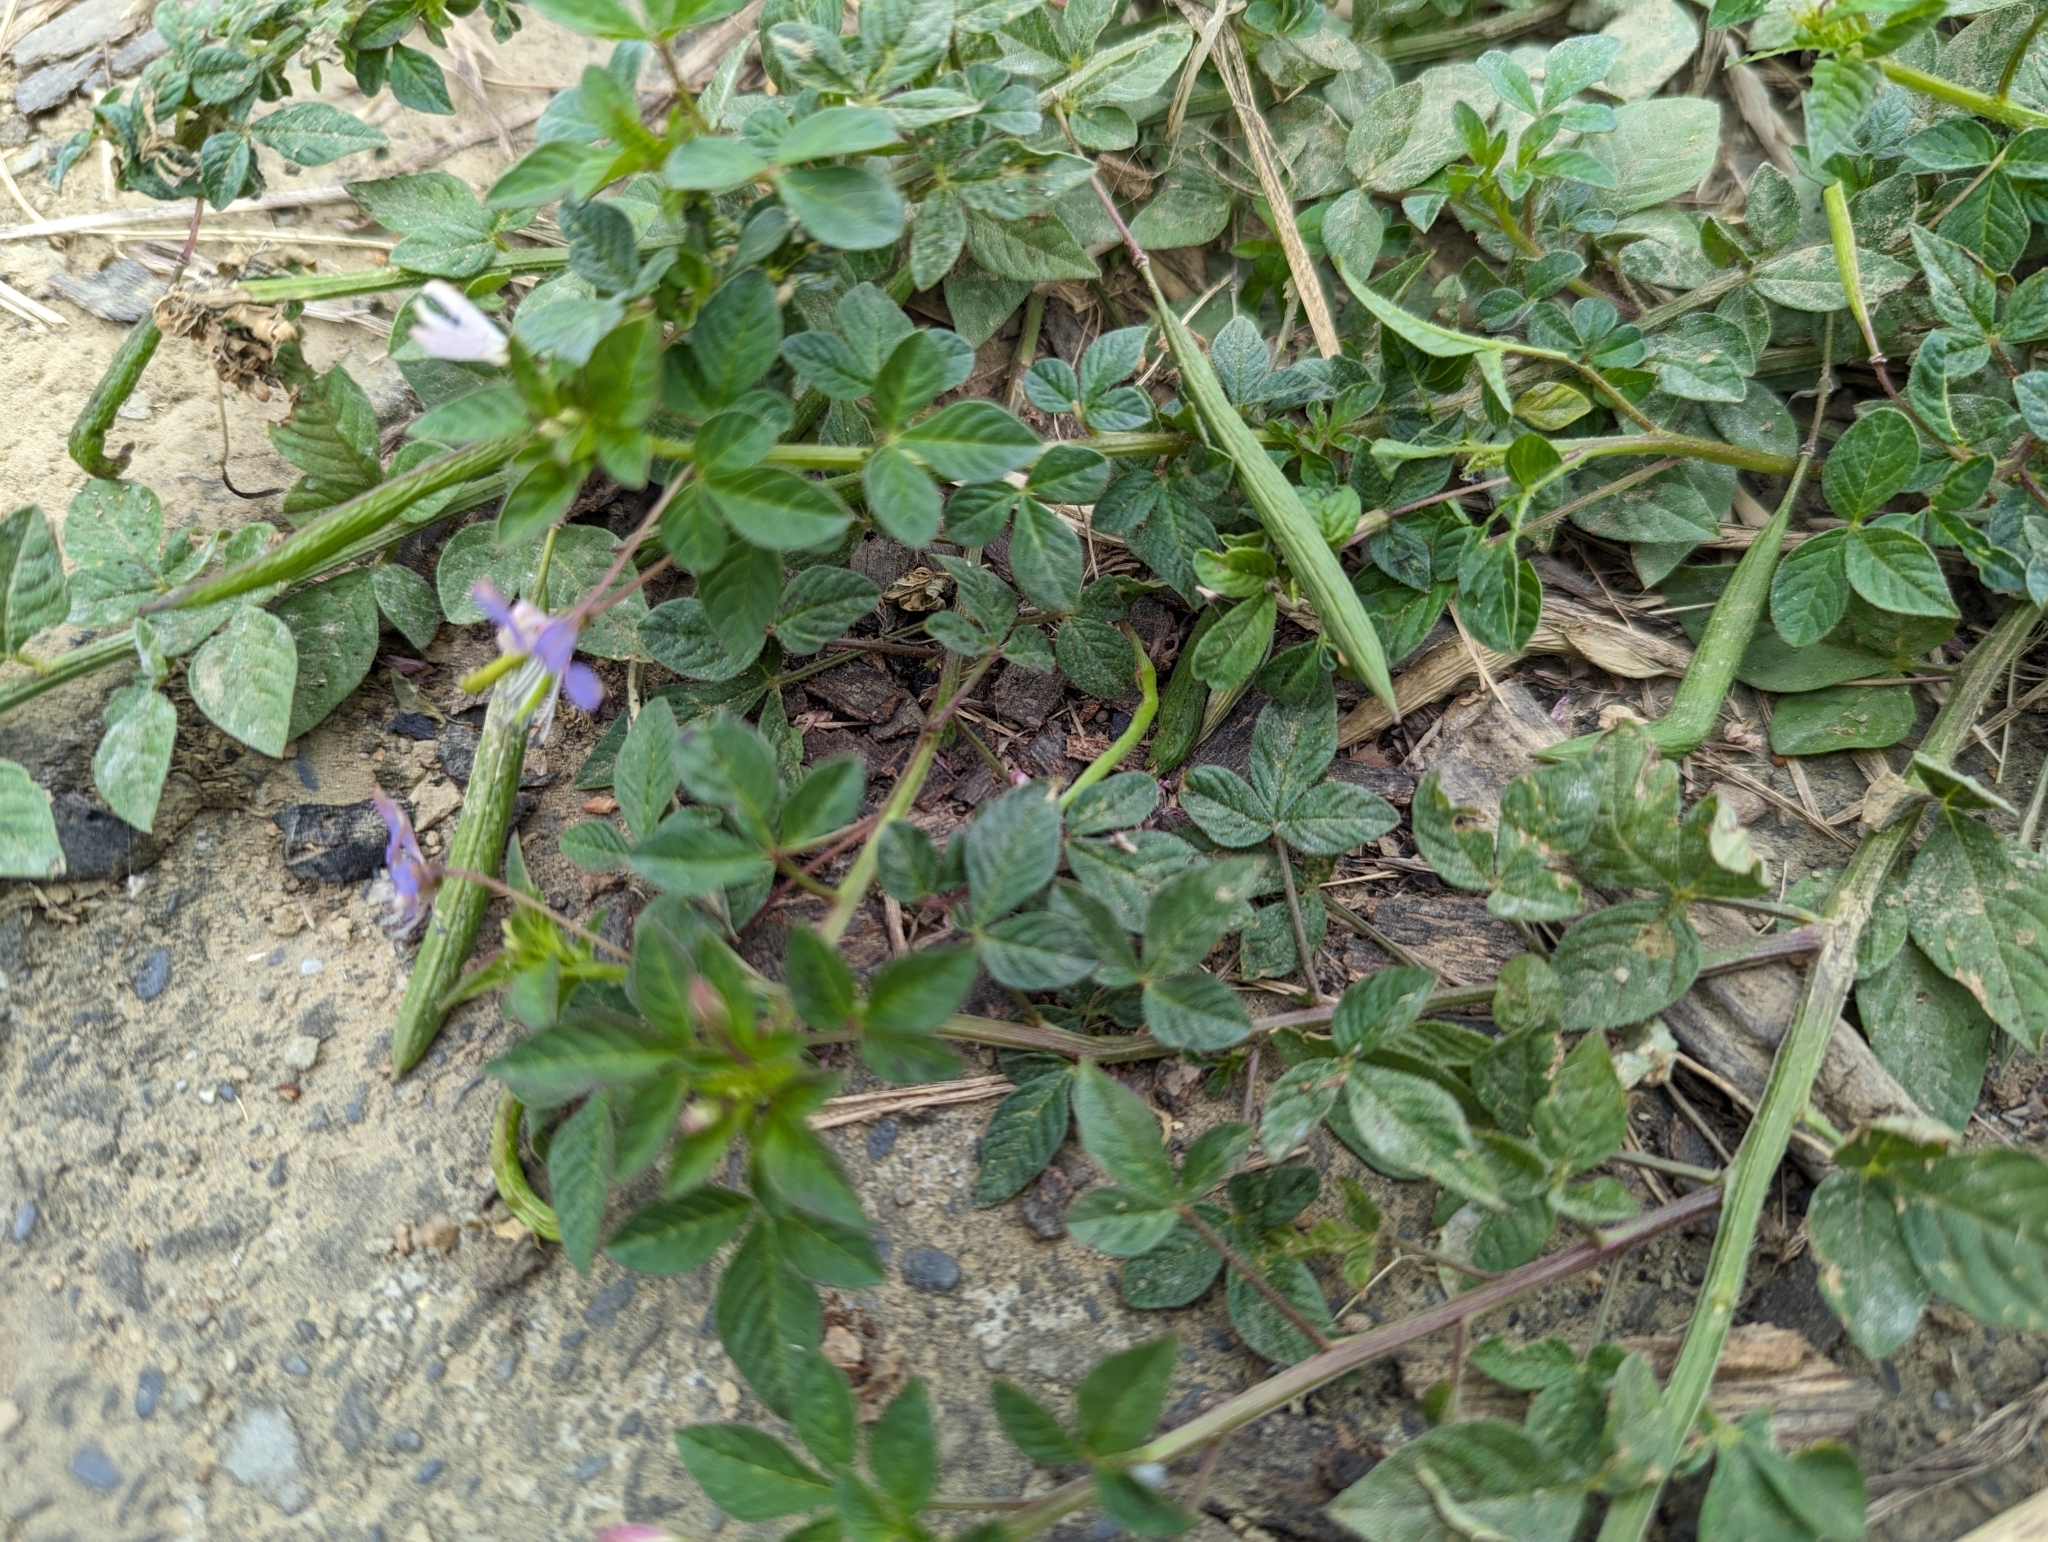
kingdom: Plantae
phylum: Tracheophyta
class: Magnoliopsida
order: Brassicales
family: Cleomaceae
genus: Sieruela
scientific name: Sieruela rutidosperma
